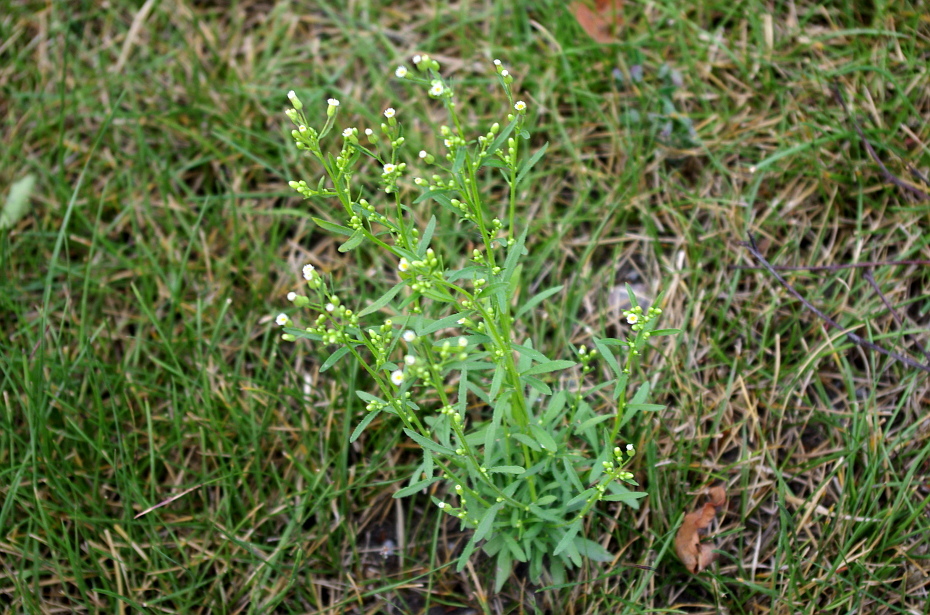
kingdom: Plantae
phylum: Tracheophyta
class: Magnoliopsida
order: Asterales
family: Asteraceae
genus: Erigeron
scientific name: Erigeron canadensis
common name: Canadian fleabane
